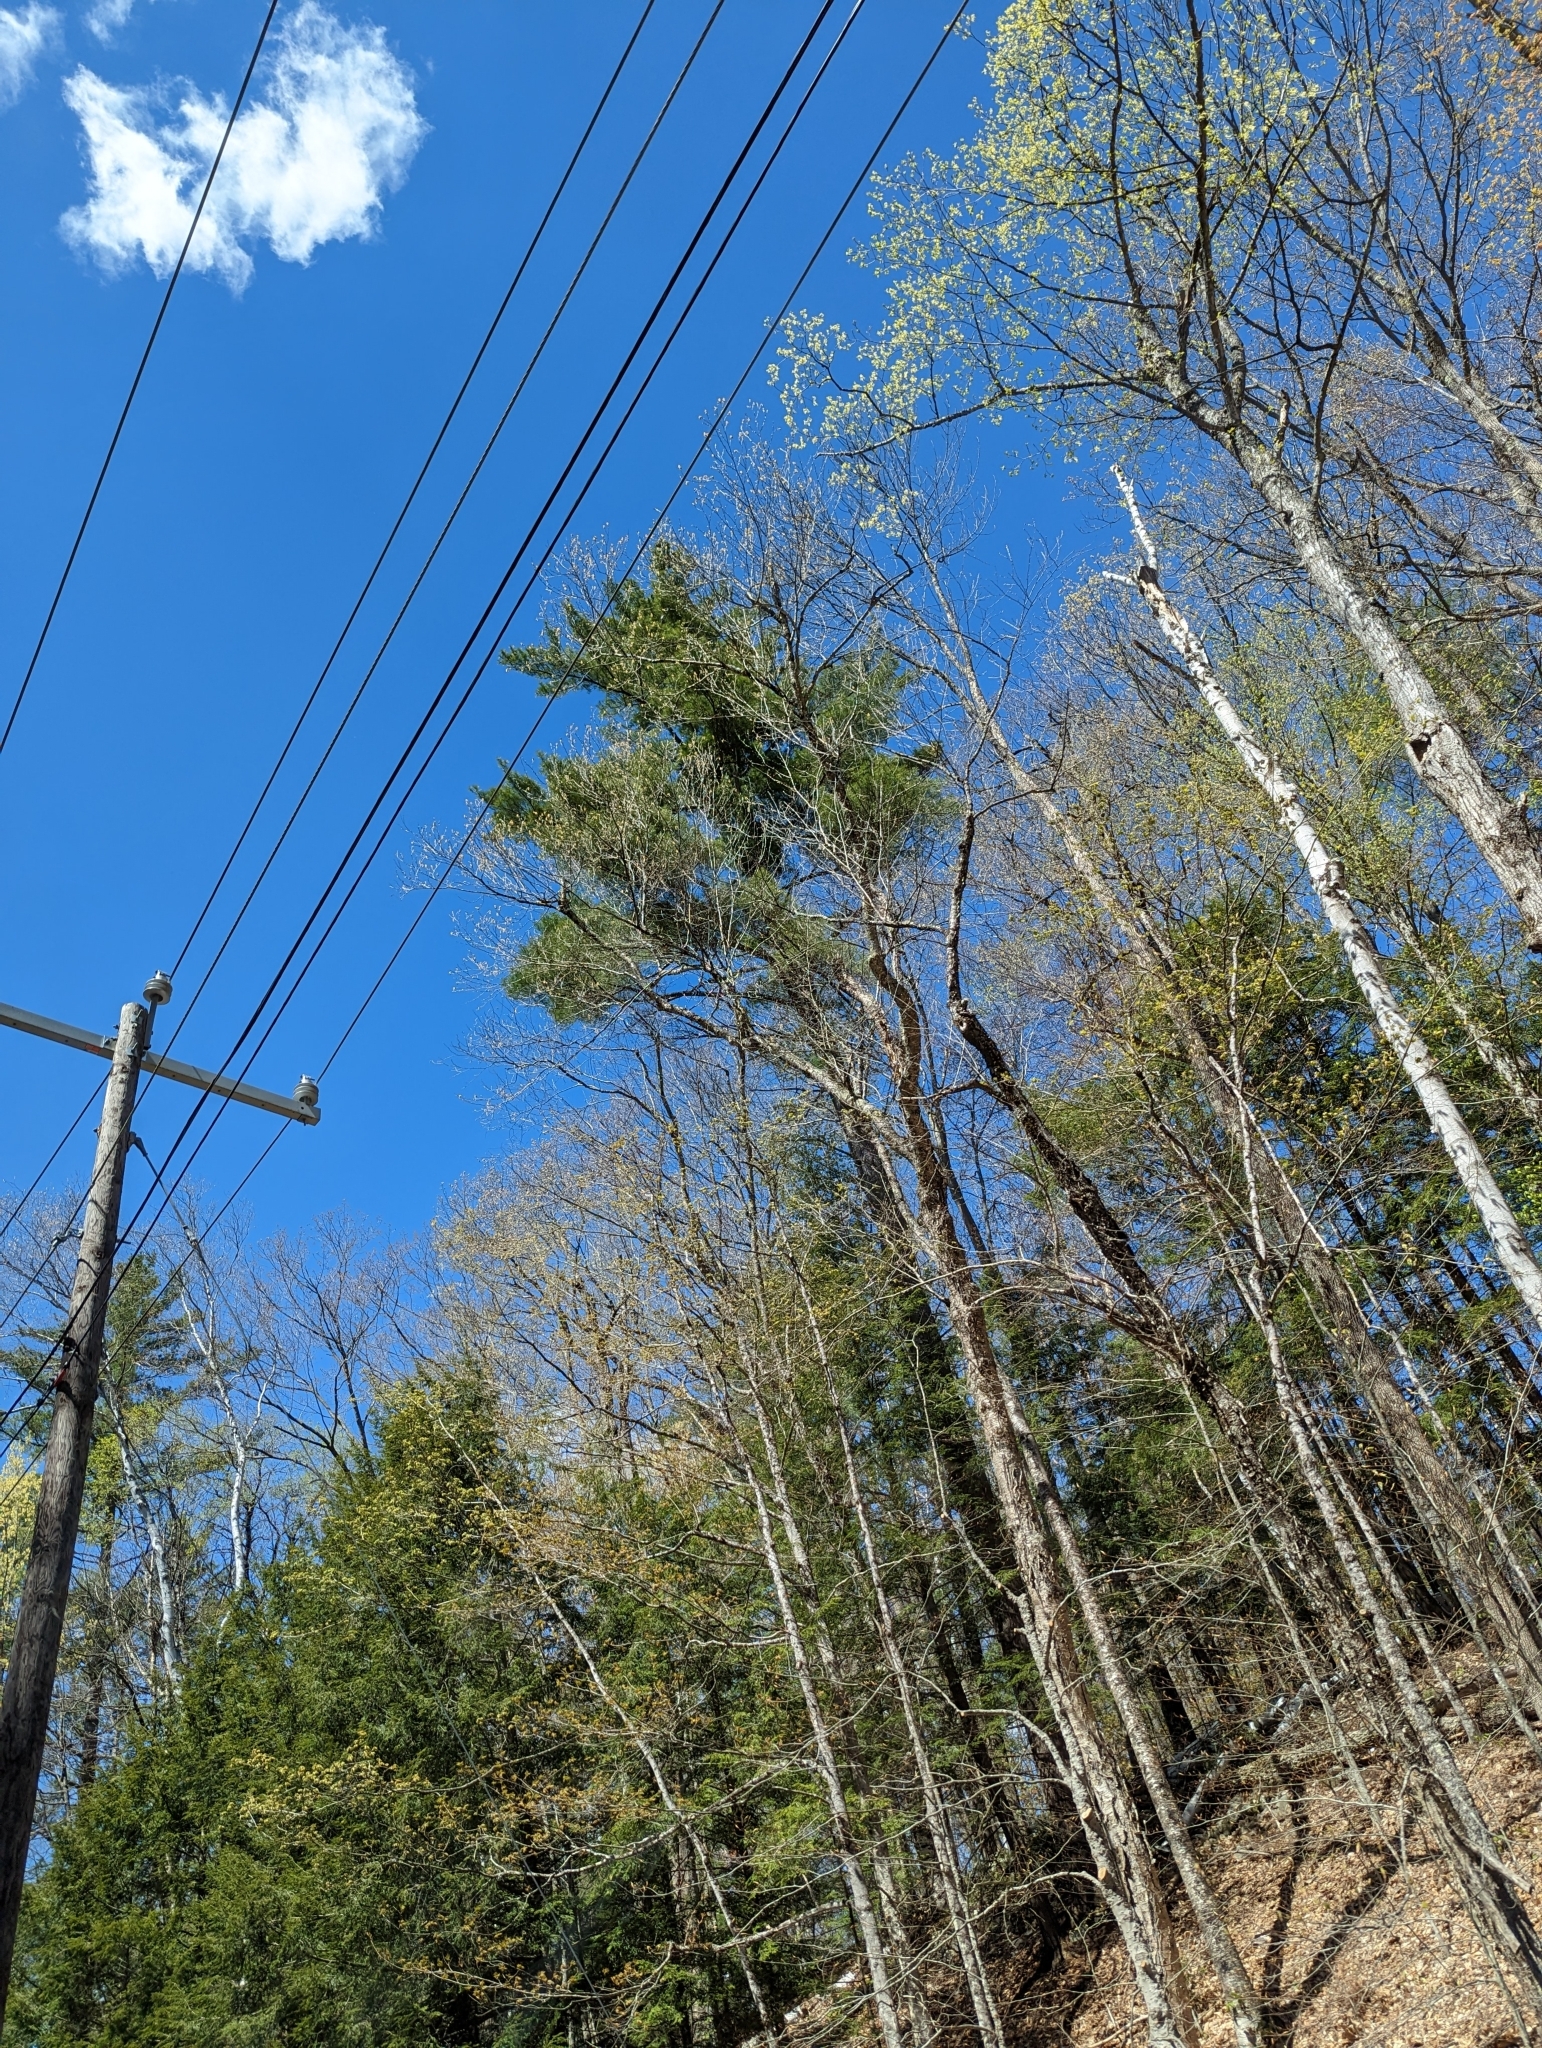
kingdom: Plantae
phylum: Tracheophyta
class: Pinopsida
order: Pinales
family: Pinaceae
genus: Pinus
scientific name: Pinus strobus
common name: Weymouth pine
